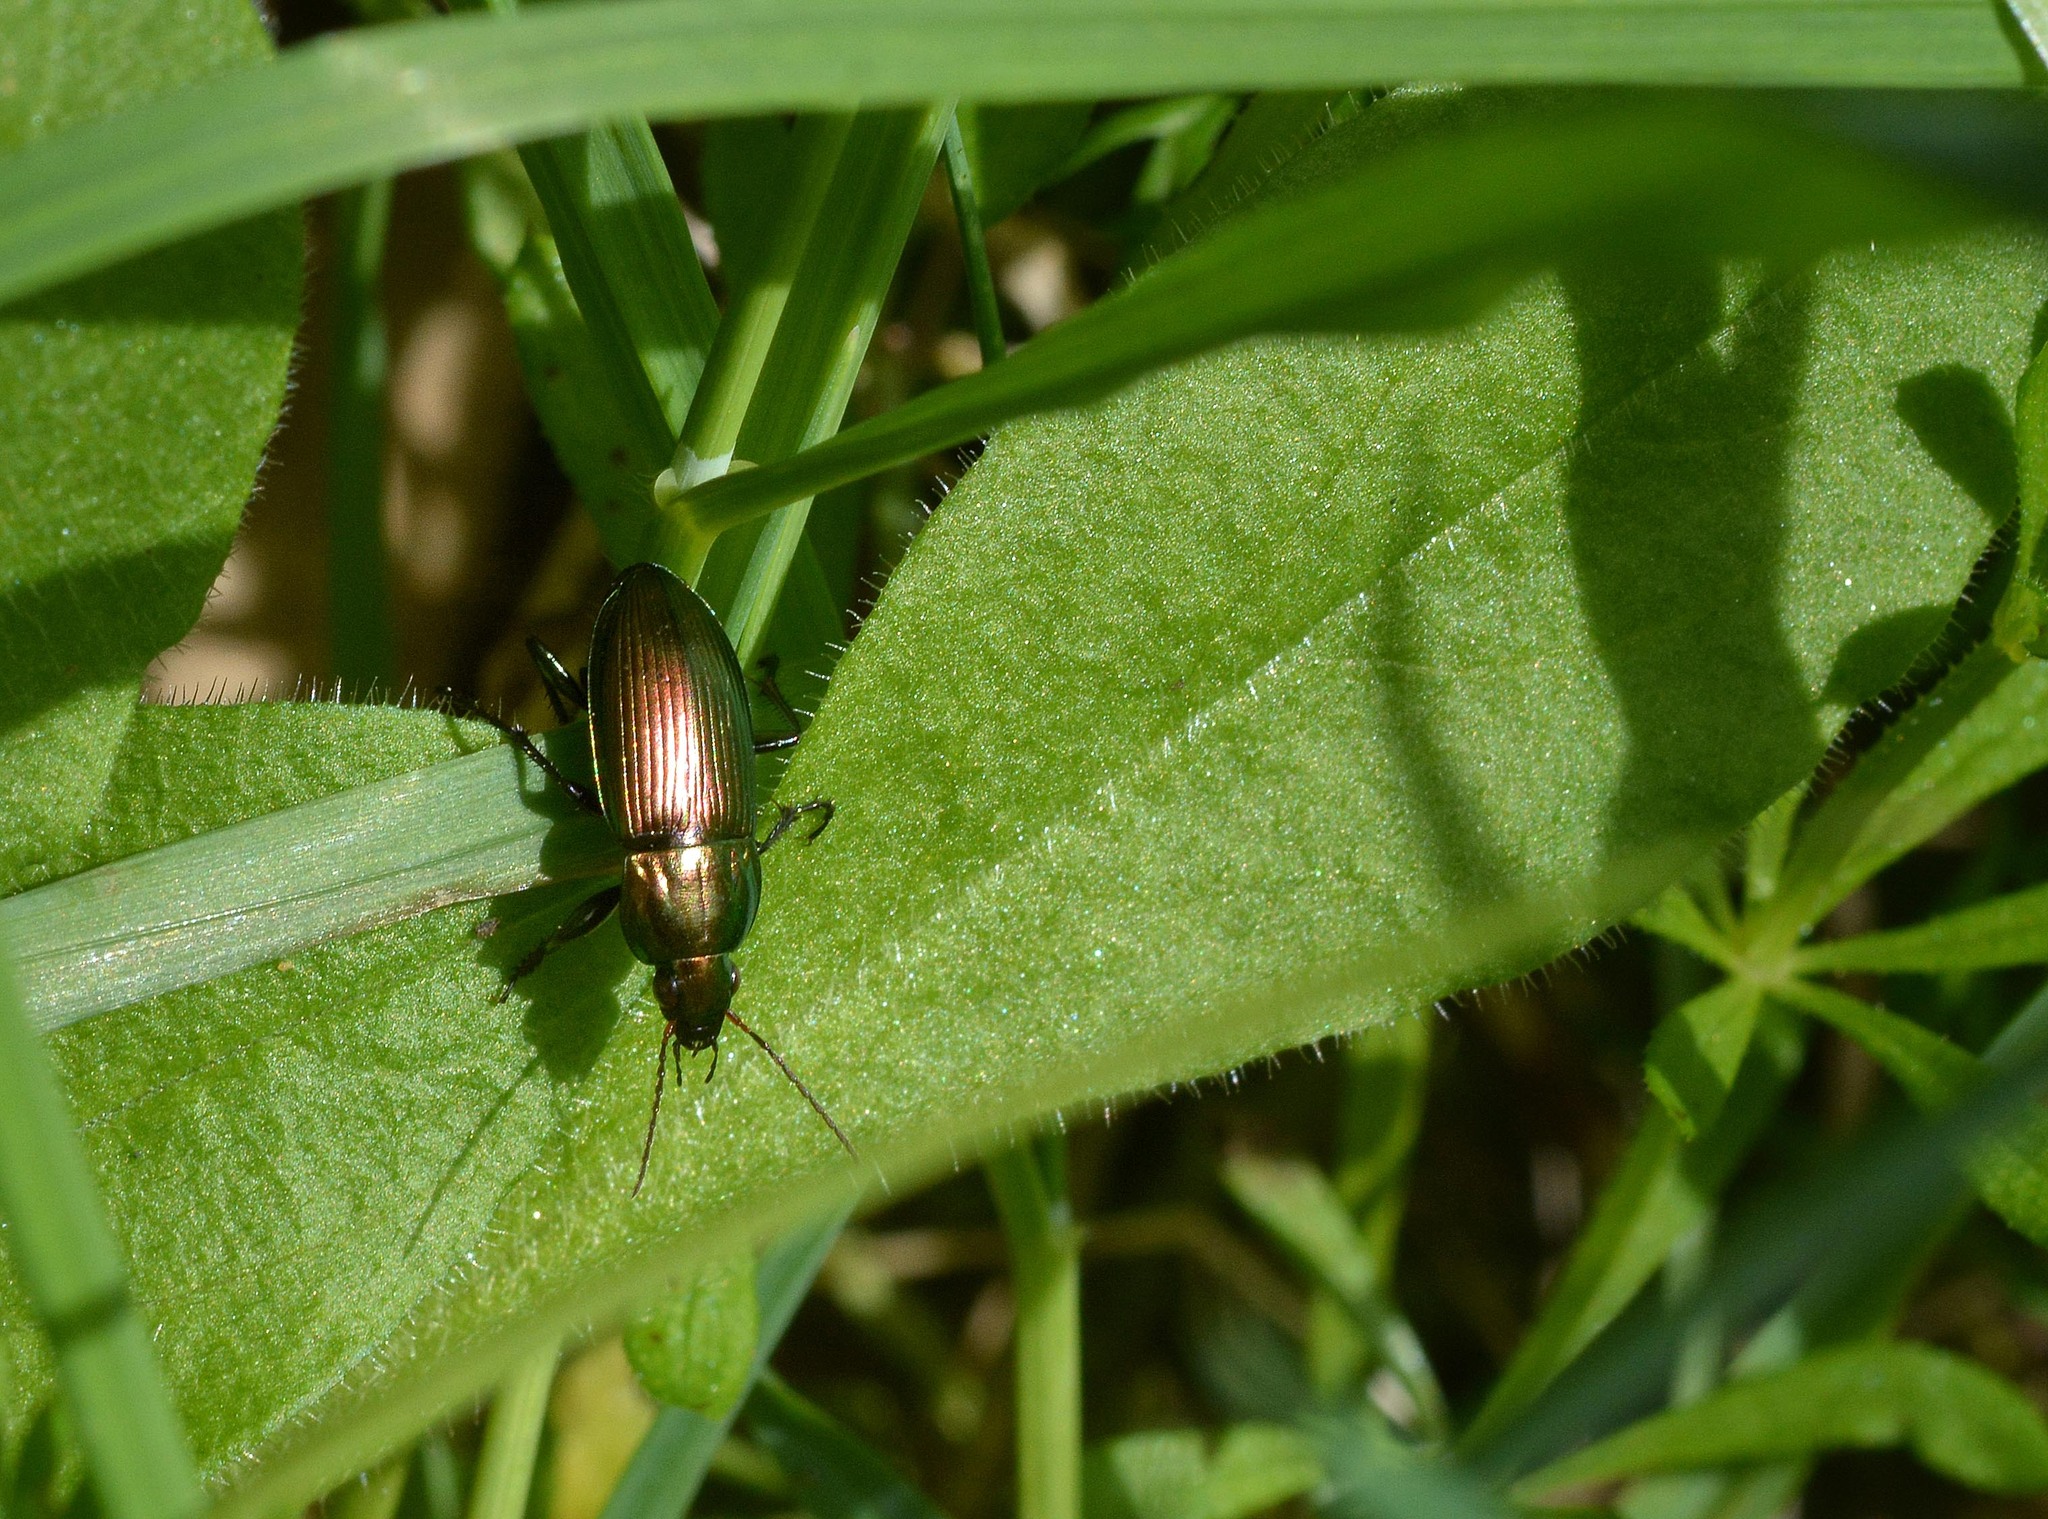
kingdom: Animalia
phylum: Arthropoda
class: Insecta
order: Coleoptera
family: Carabidae
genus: Poecilus
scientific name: Poecilus cupreus
